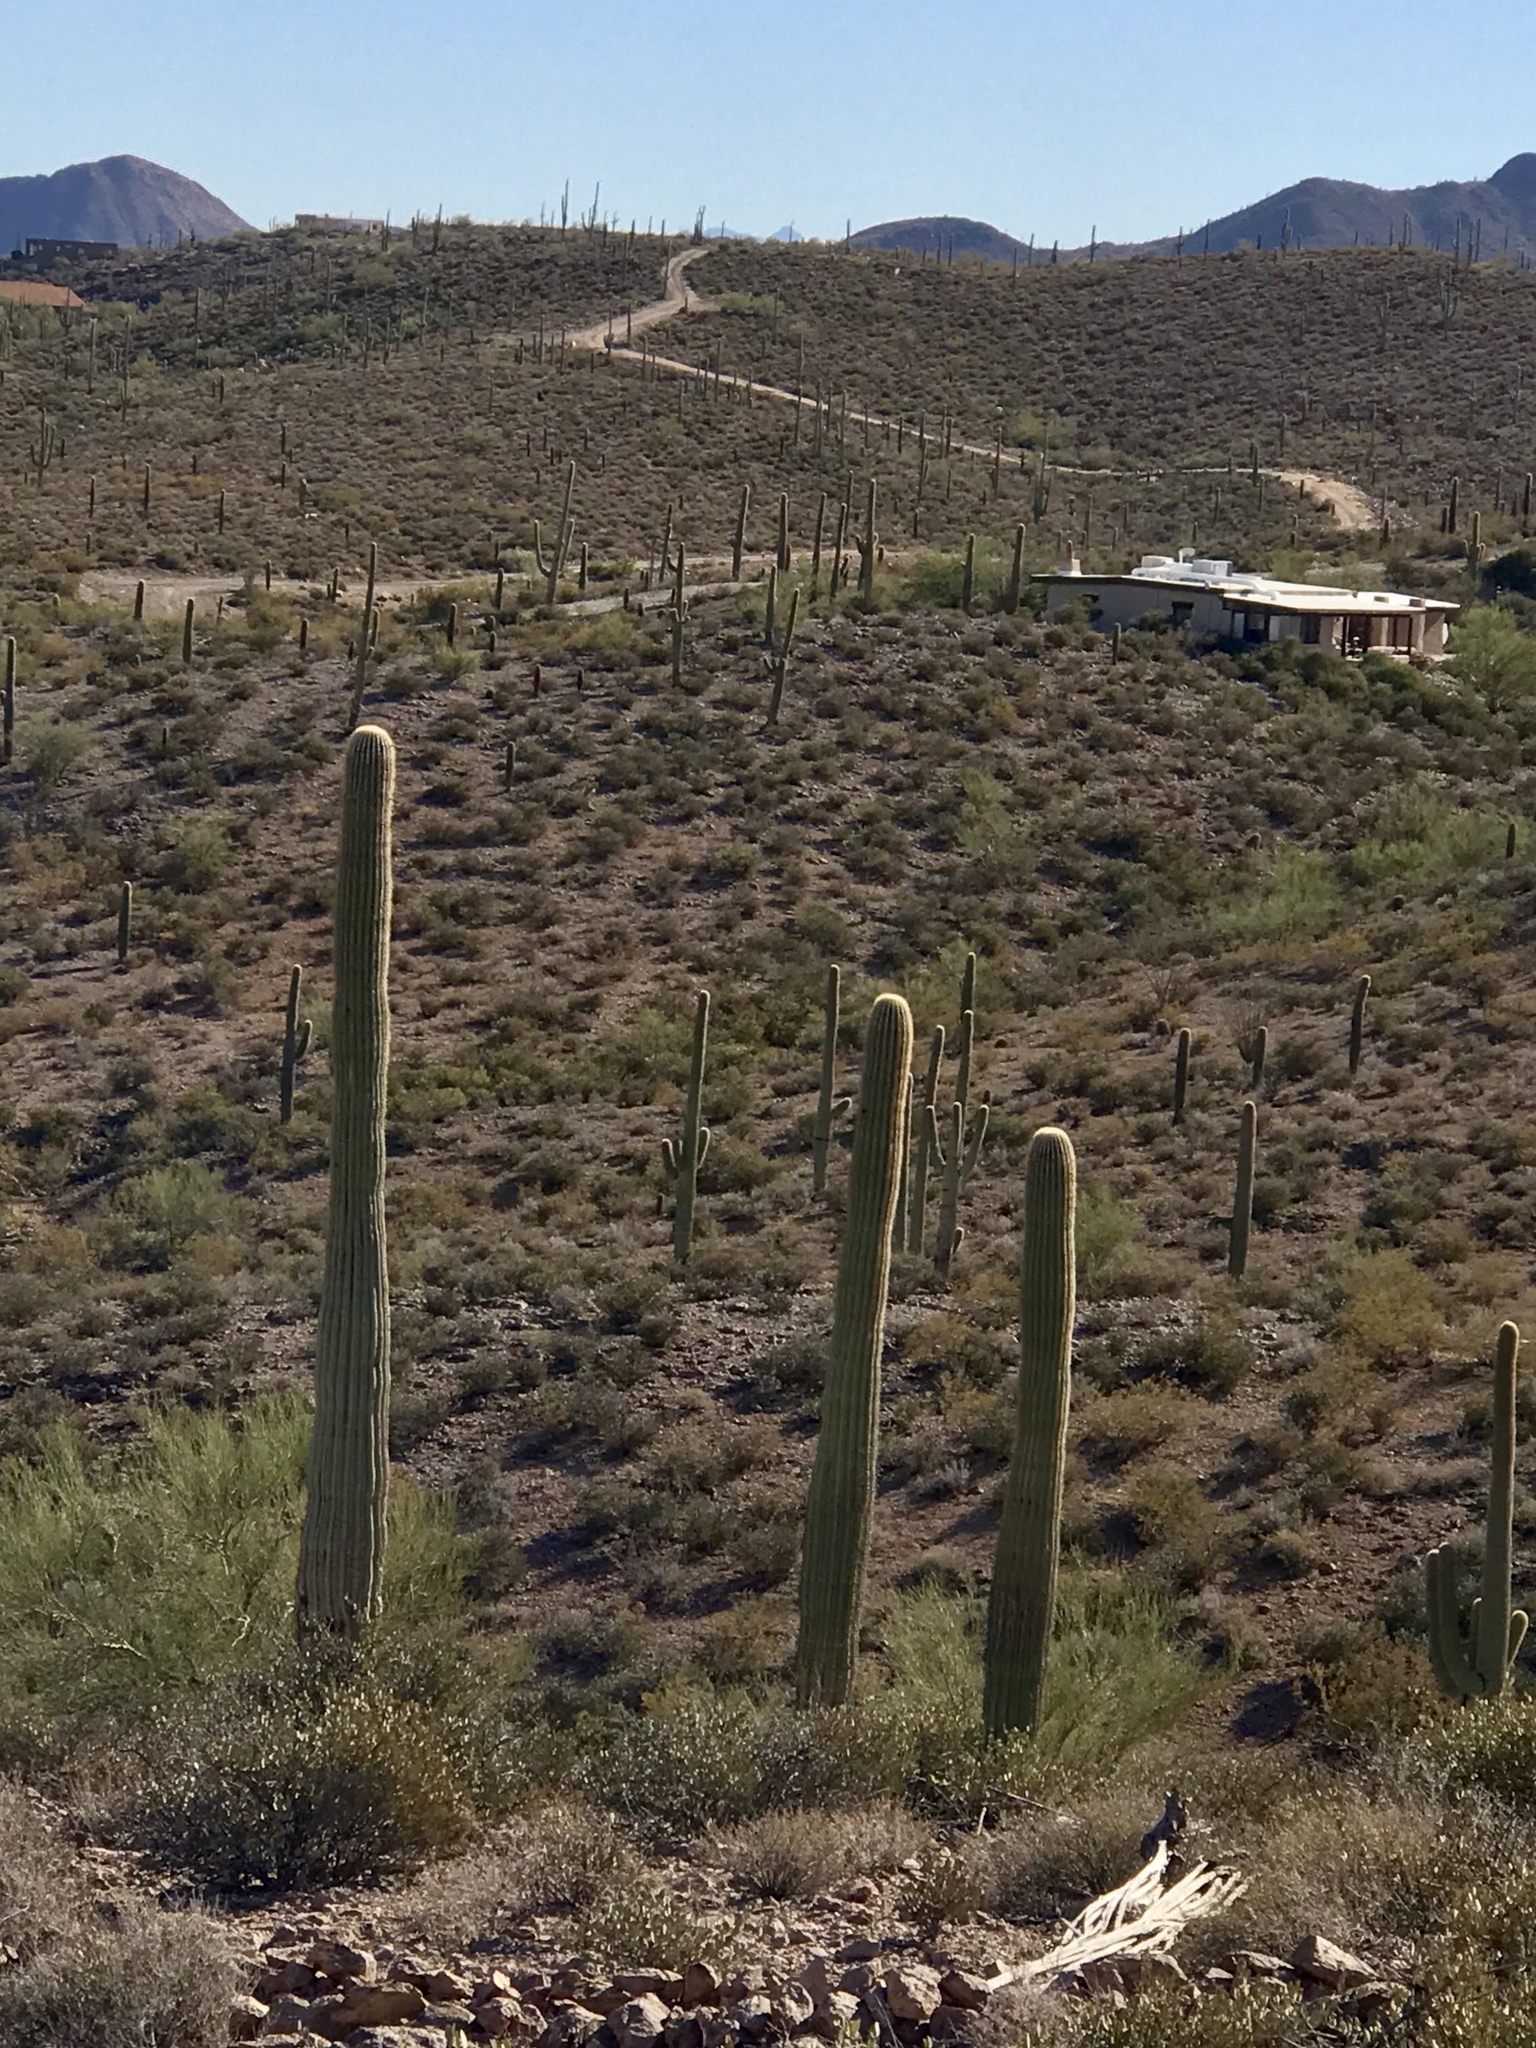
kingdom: Plantae
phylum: Tracheophyta
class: Magnoliopsida
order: Caryophyllales
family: Cactaceae
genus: Carnegiea
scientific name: Carnegiea gigantea
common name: Saguaro
